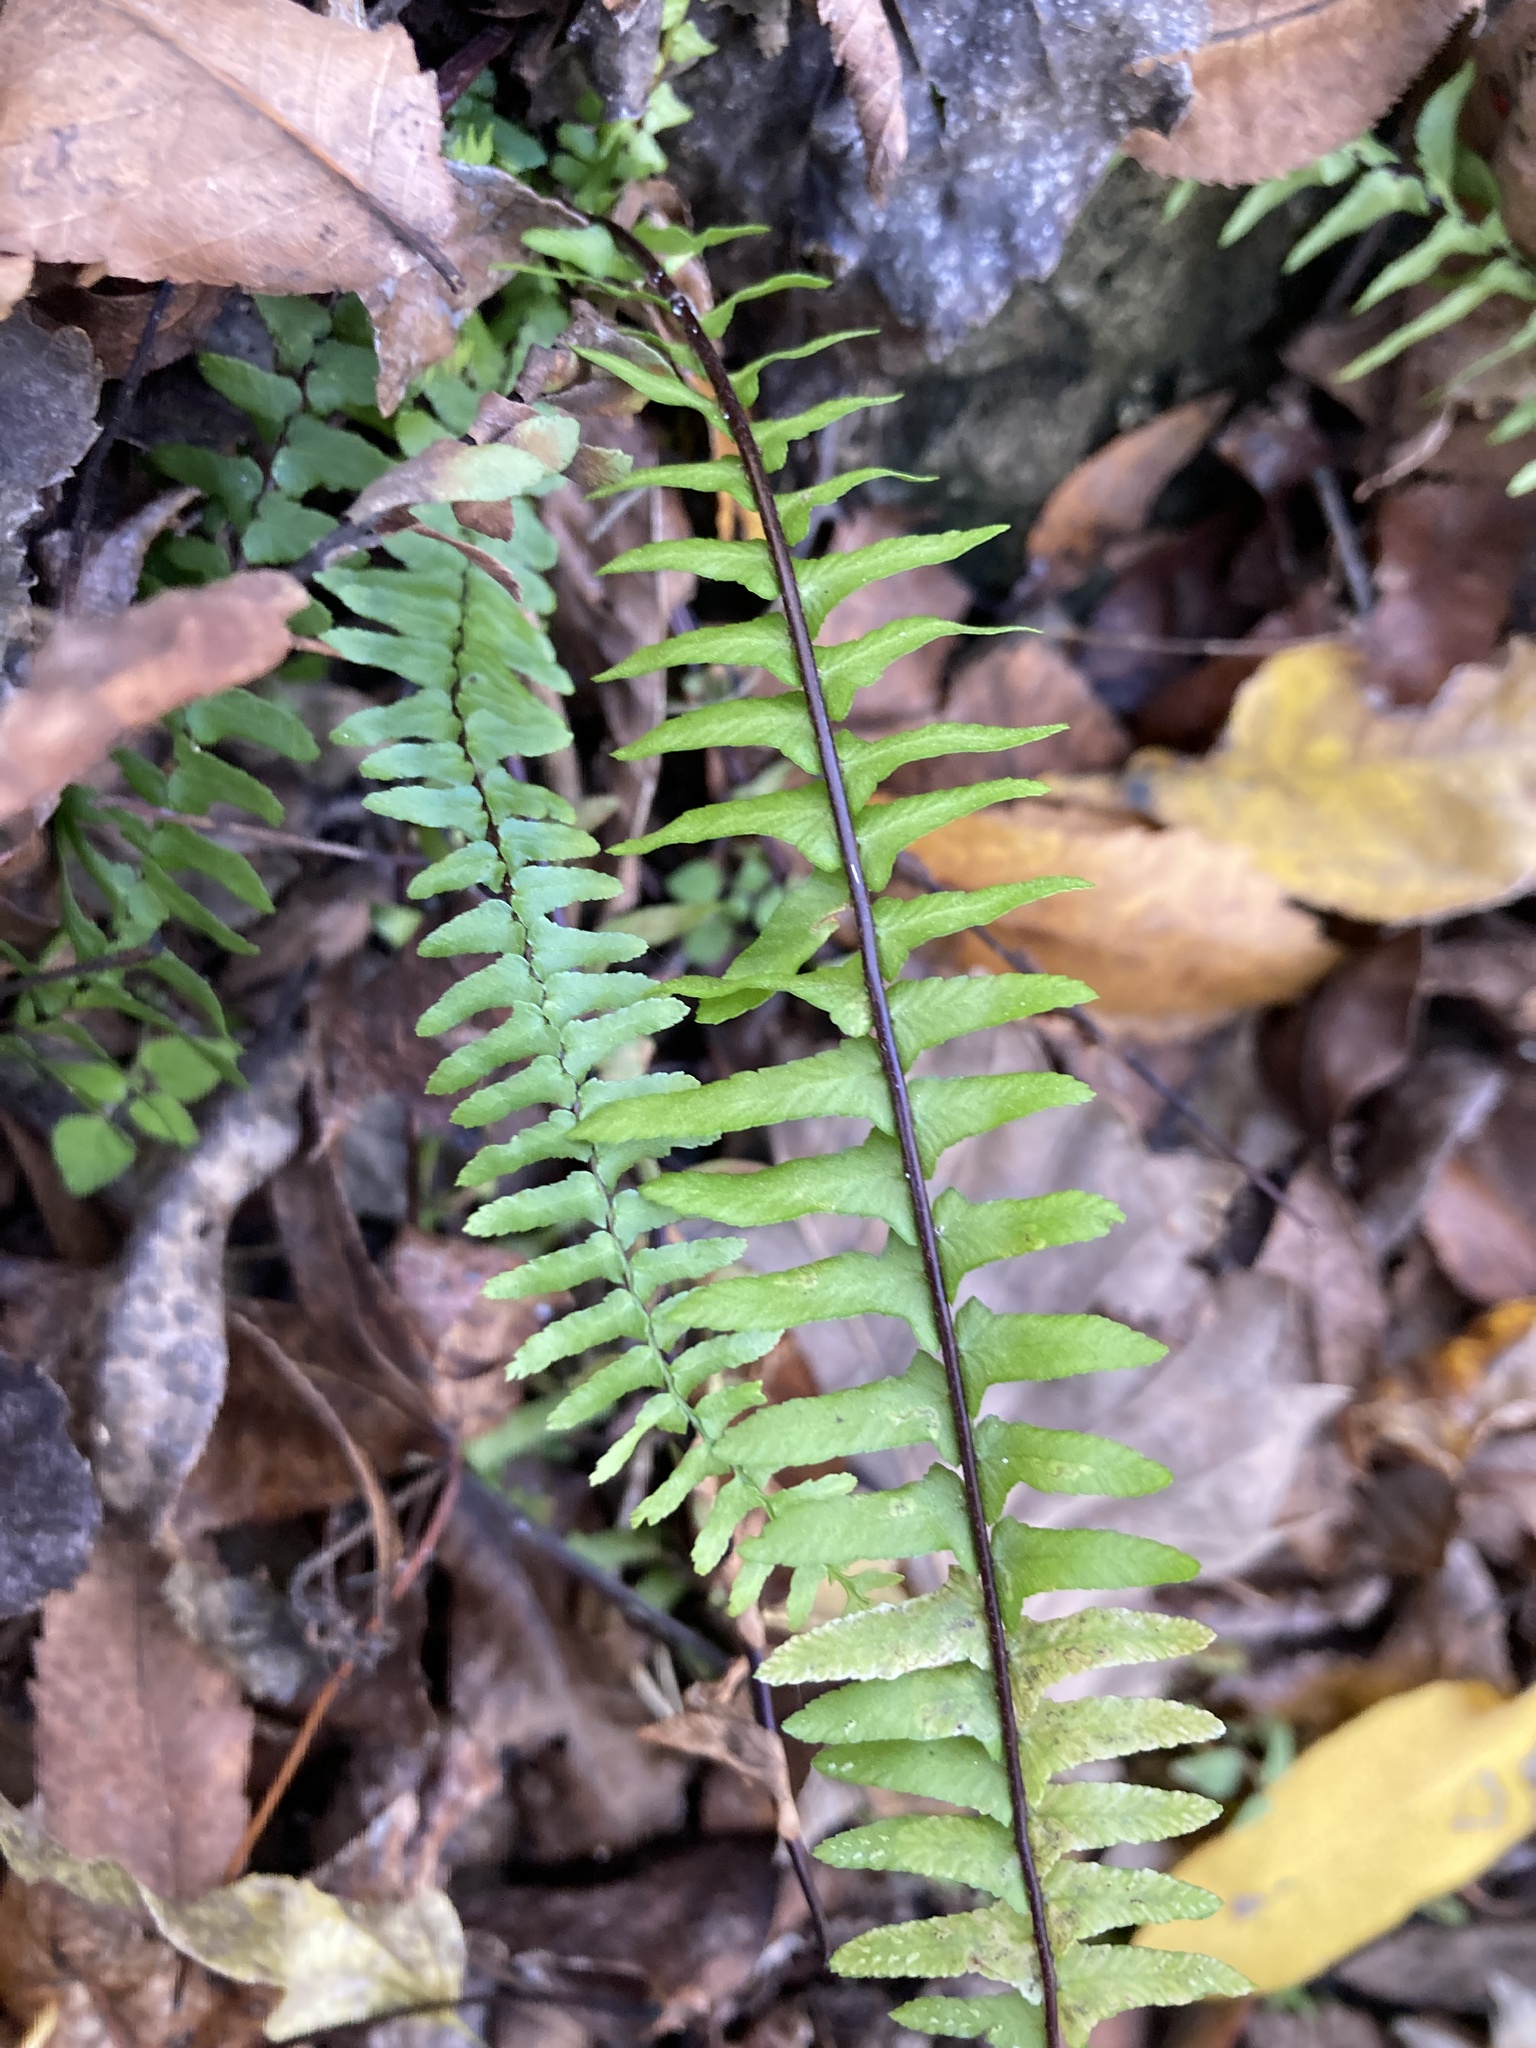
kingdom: Plantae
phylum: Tracheophyta
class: Polypodiopsida
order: Polypodiales
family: Aspleniaceae
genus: Asplenium
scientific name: Asplenium platyneuron
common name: Ebony spleenwort
